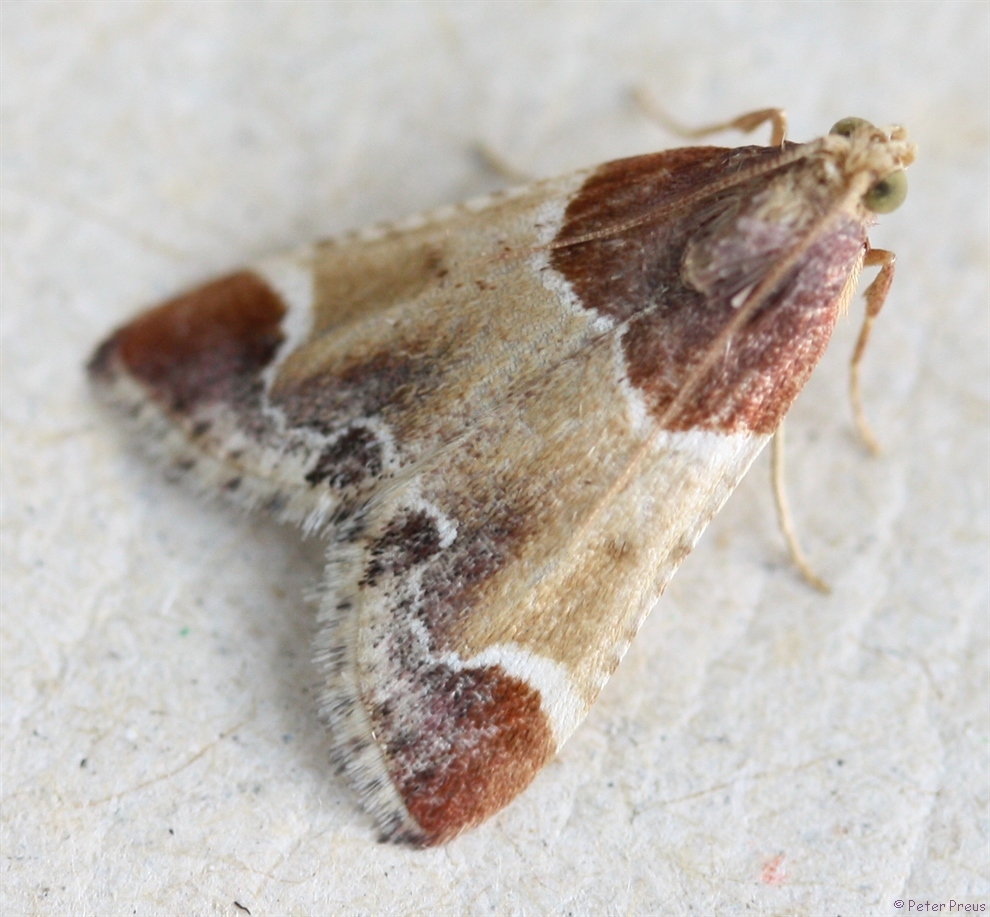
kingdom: Animalia
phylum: Arthropoda
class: Insecta
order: Lepidoptera
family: Pyralidae
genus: Pyralis
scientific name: Pyralis farinalis
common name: Meal moth
